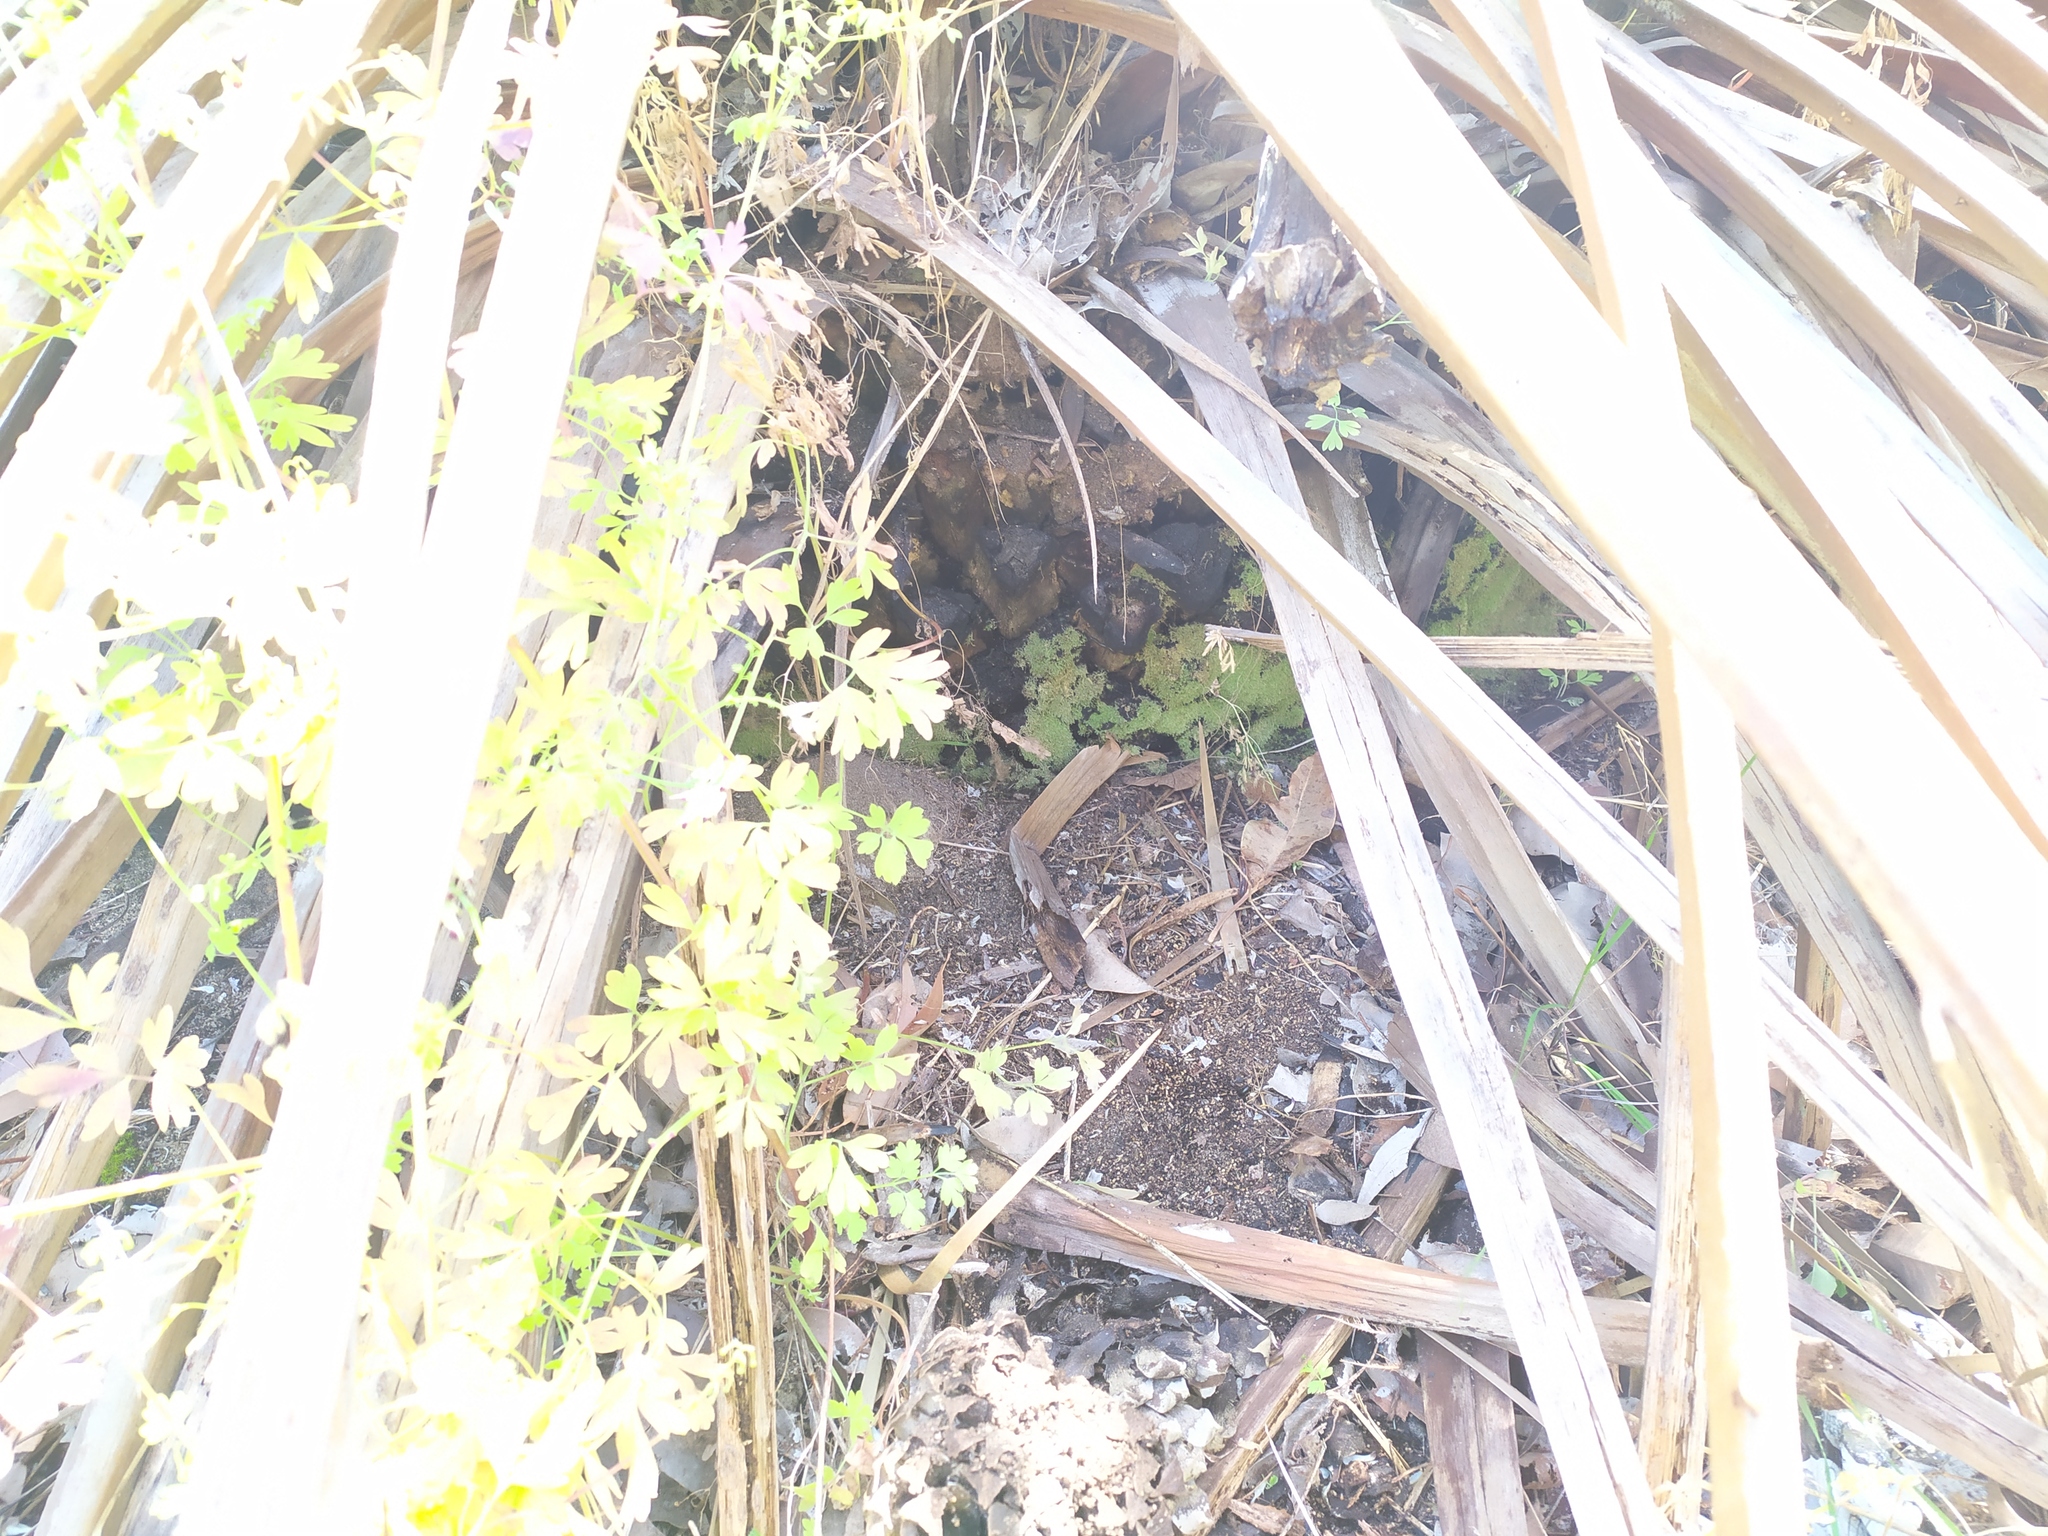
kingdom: Plantae
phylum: Bryophyta
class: Bryopsida
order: Hypnales
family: Fabroniaceae
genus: Fabronia
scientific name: Fabronia hampeana
